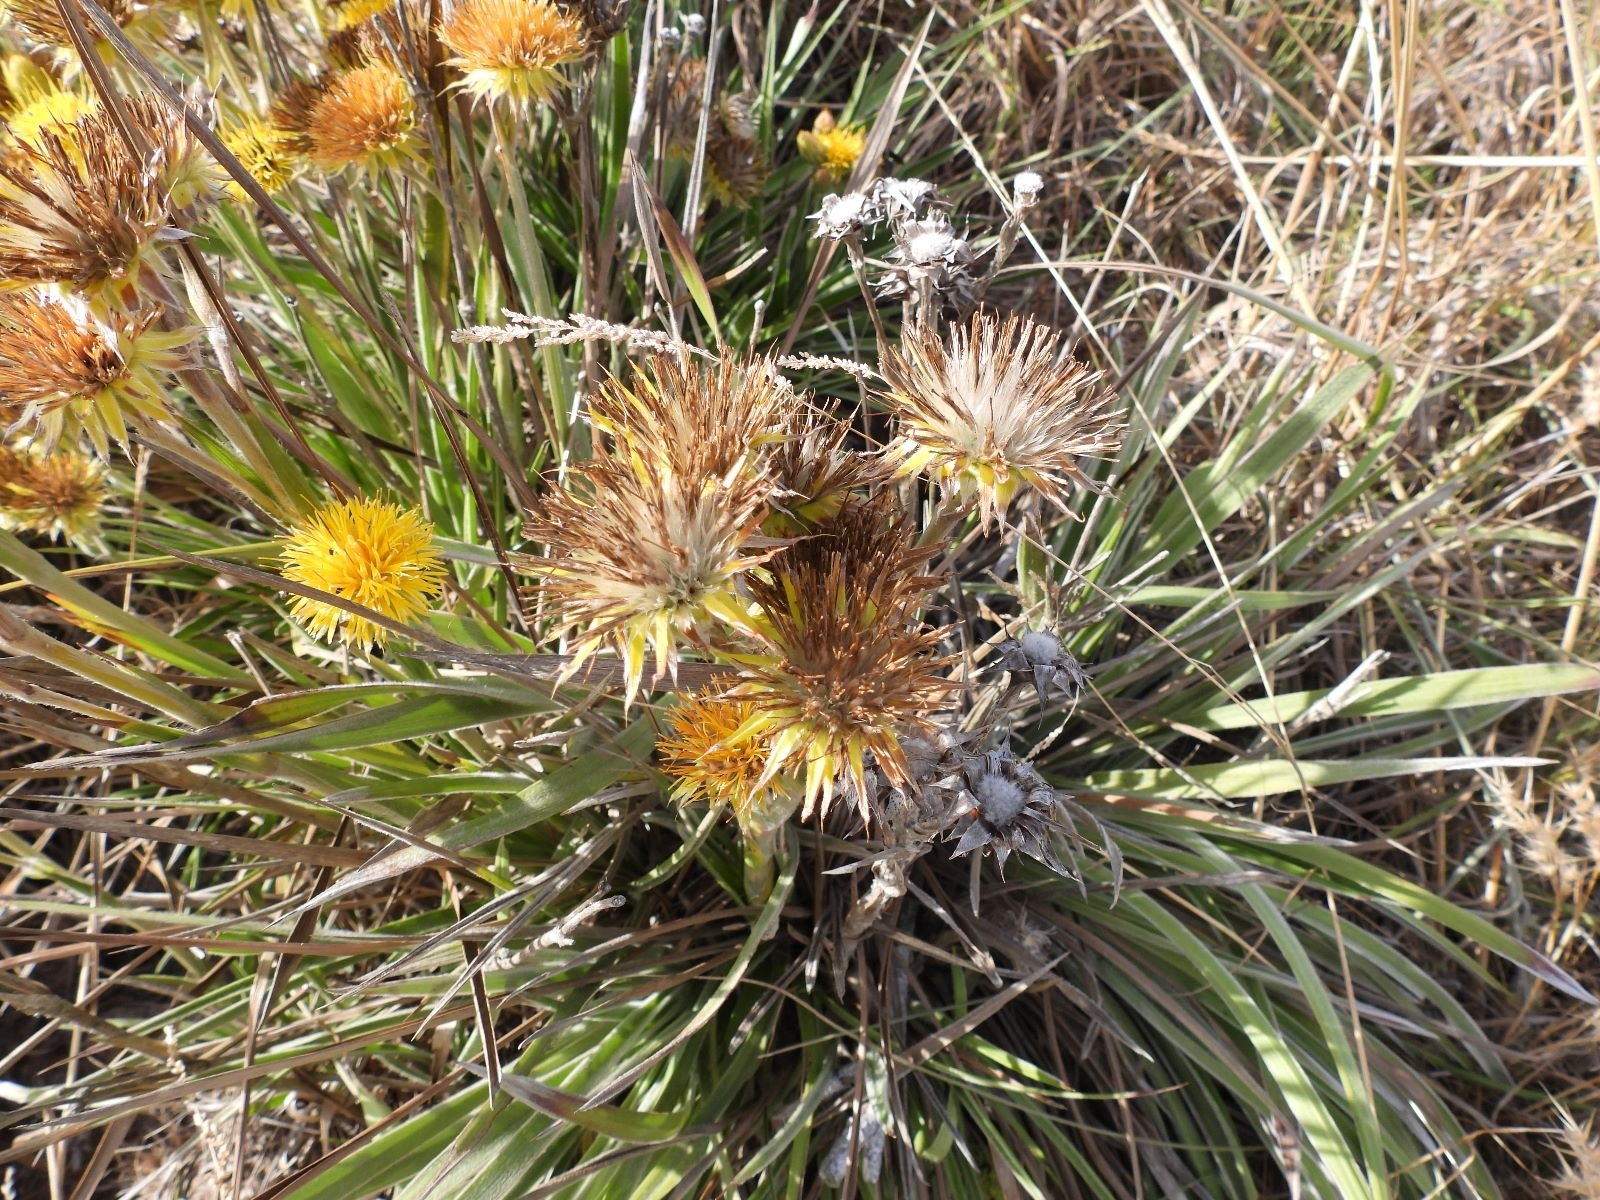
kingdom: Plantae
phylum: Tracheophyta
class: Magnoliopsida
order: Asterales
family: Asteraceae
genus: Schlechtendalia
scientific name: Schlechtendalia luzulifolia
